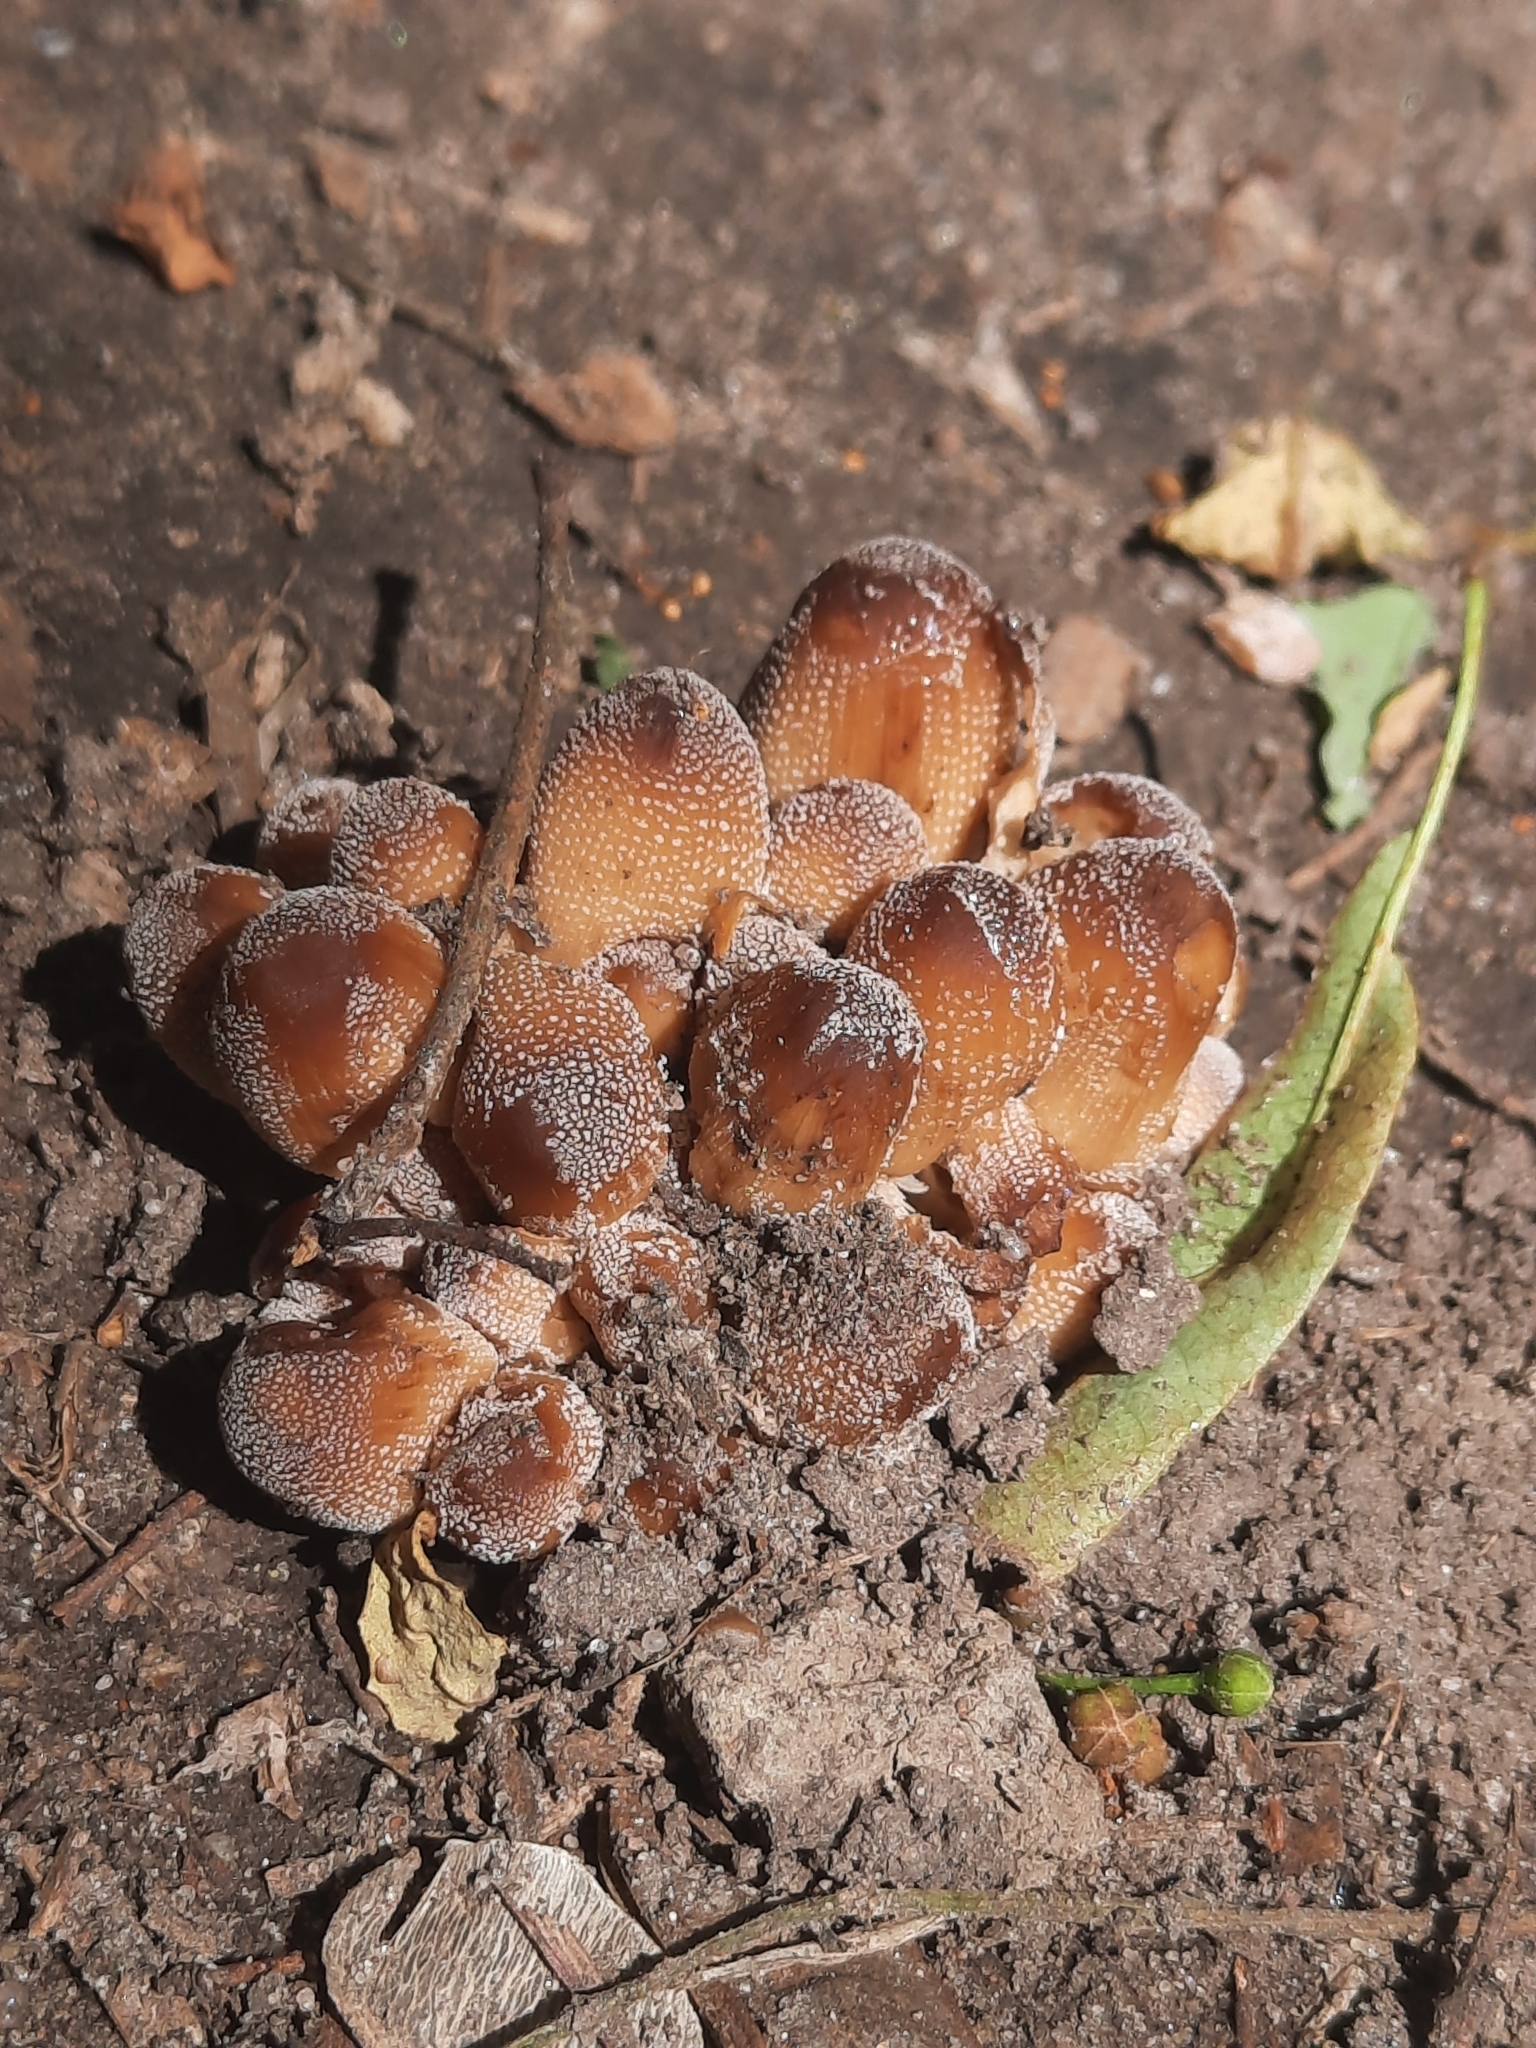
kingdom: Fungi
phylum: Basidiomycota
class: Agaricomycetes
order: Agaricales
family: Psathyrellaceae
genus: Coprinellus
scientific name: Coprinellus micaceus
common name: Glistening ink-cap
